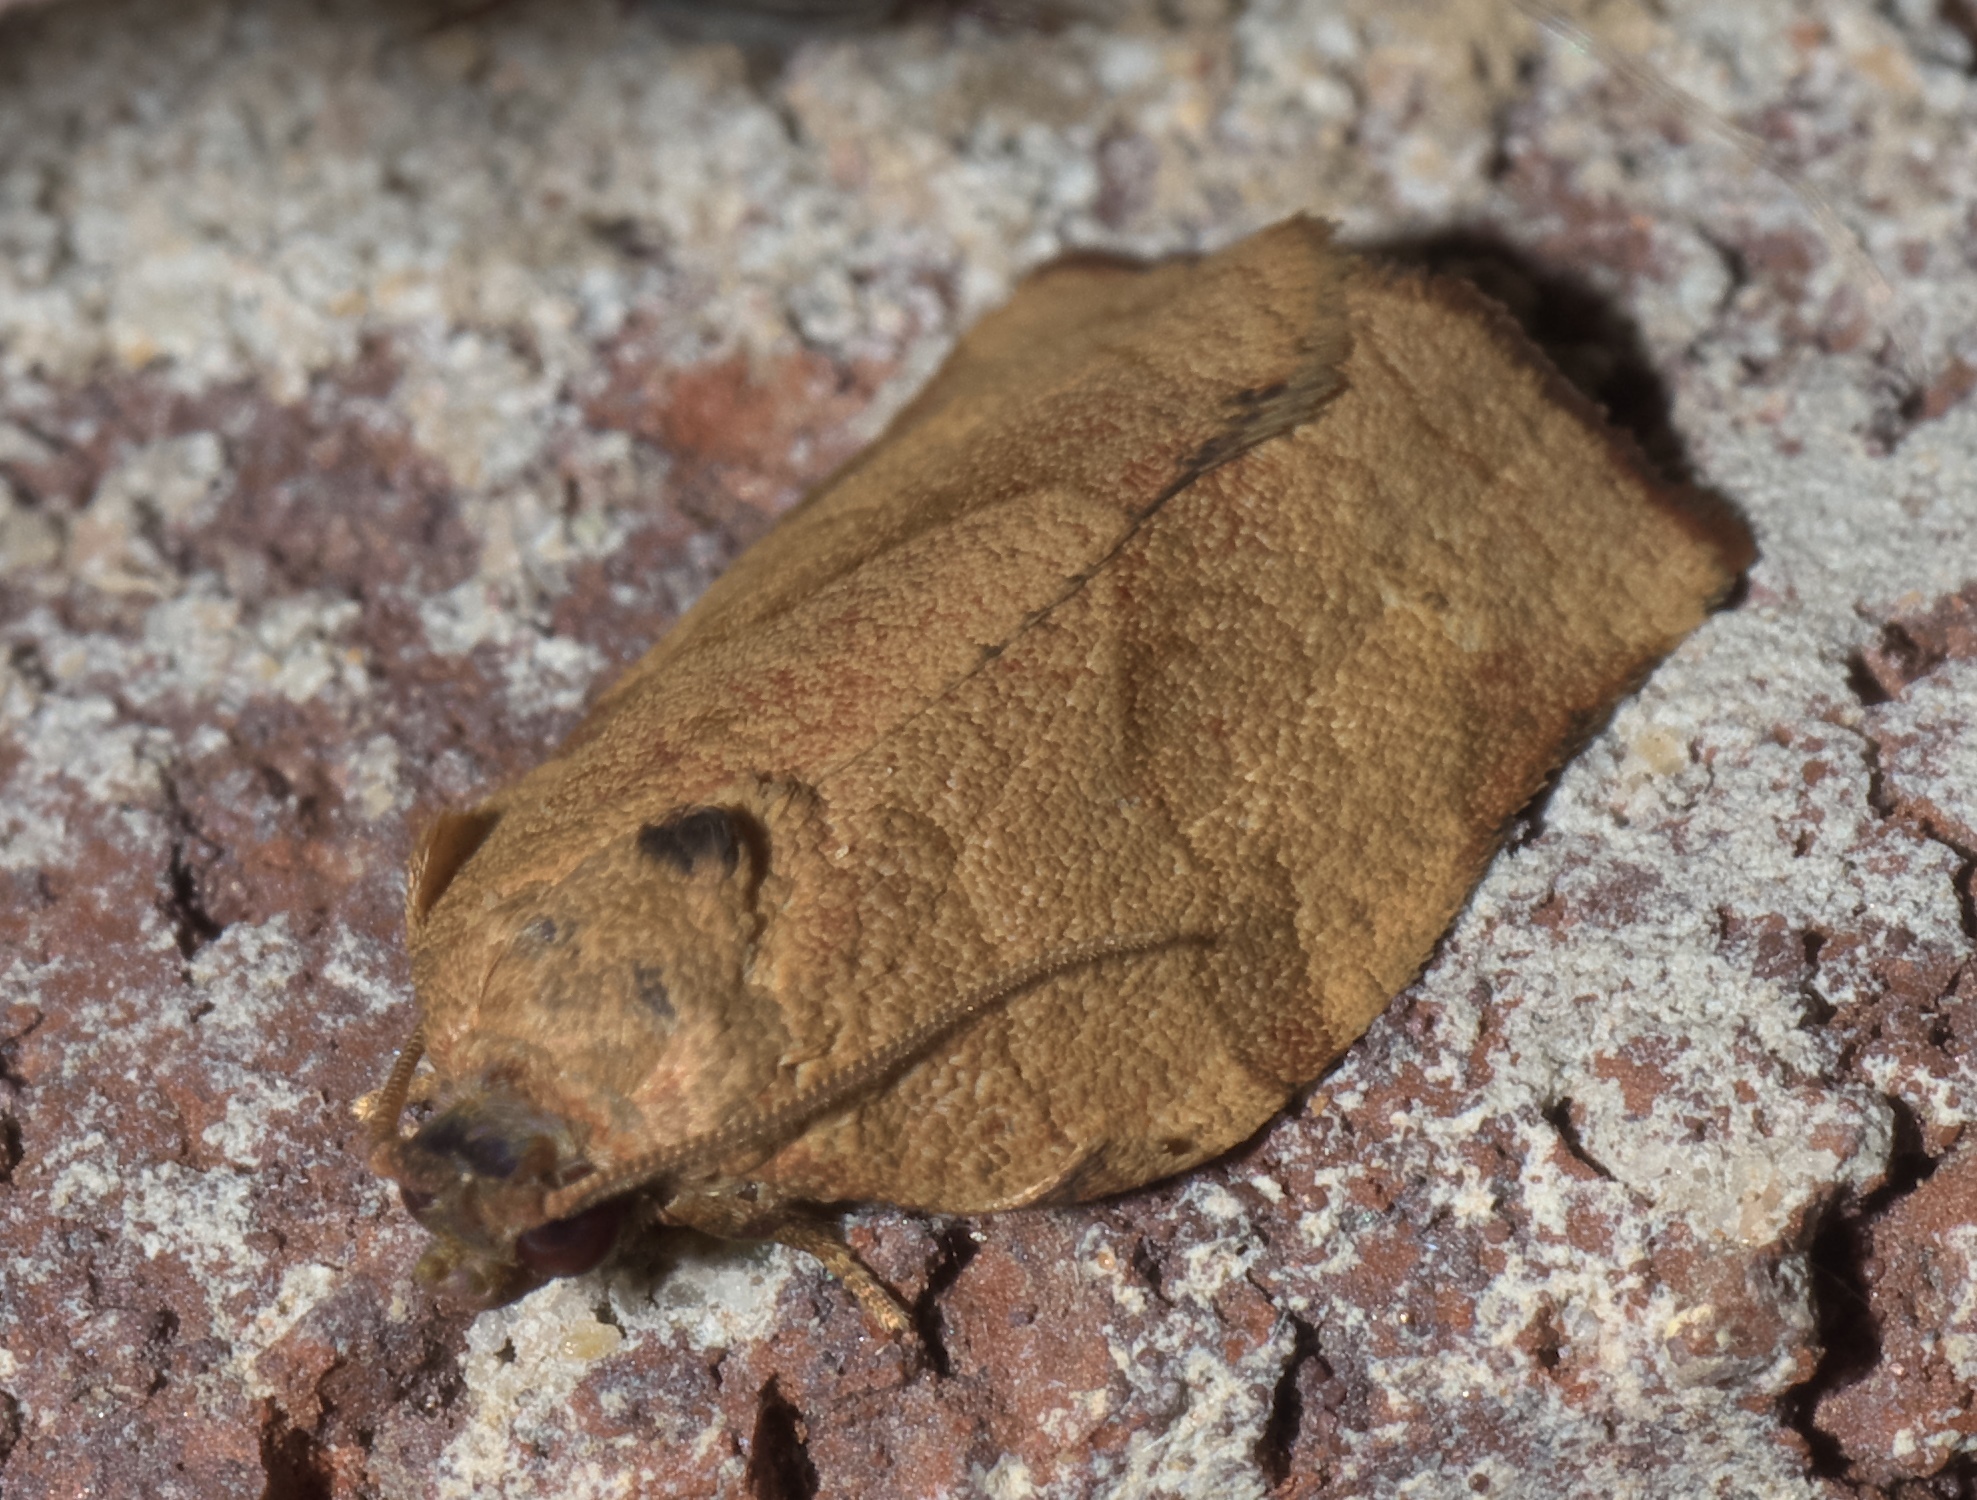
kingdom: Animalia
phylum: Arthropoda
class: Insecta
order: Lepidoptera
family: Tortricidae
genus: Choristoneura
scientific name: Choristoneura rosaceana
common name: Oblique-banded leafroller moth
